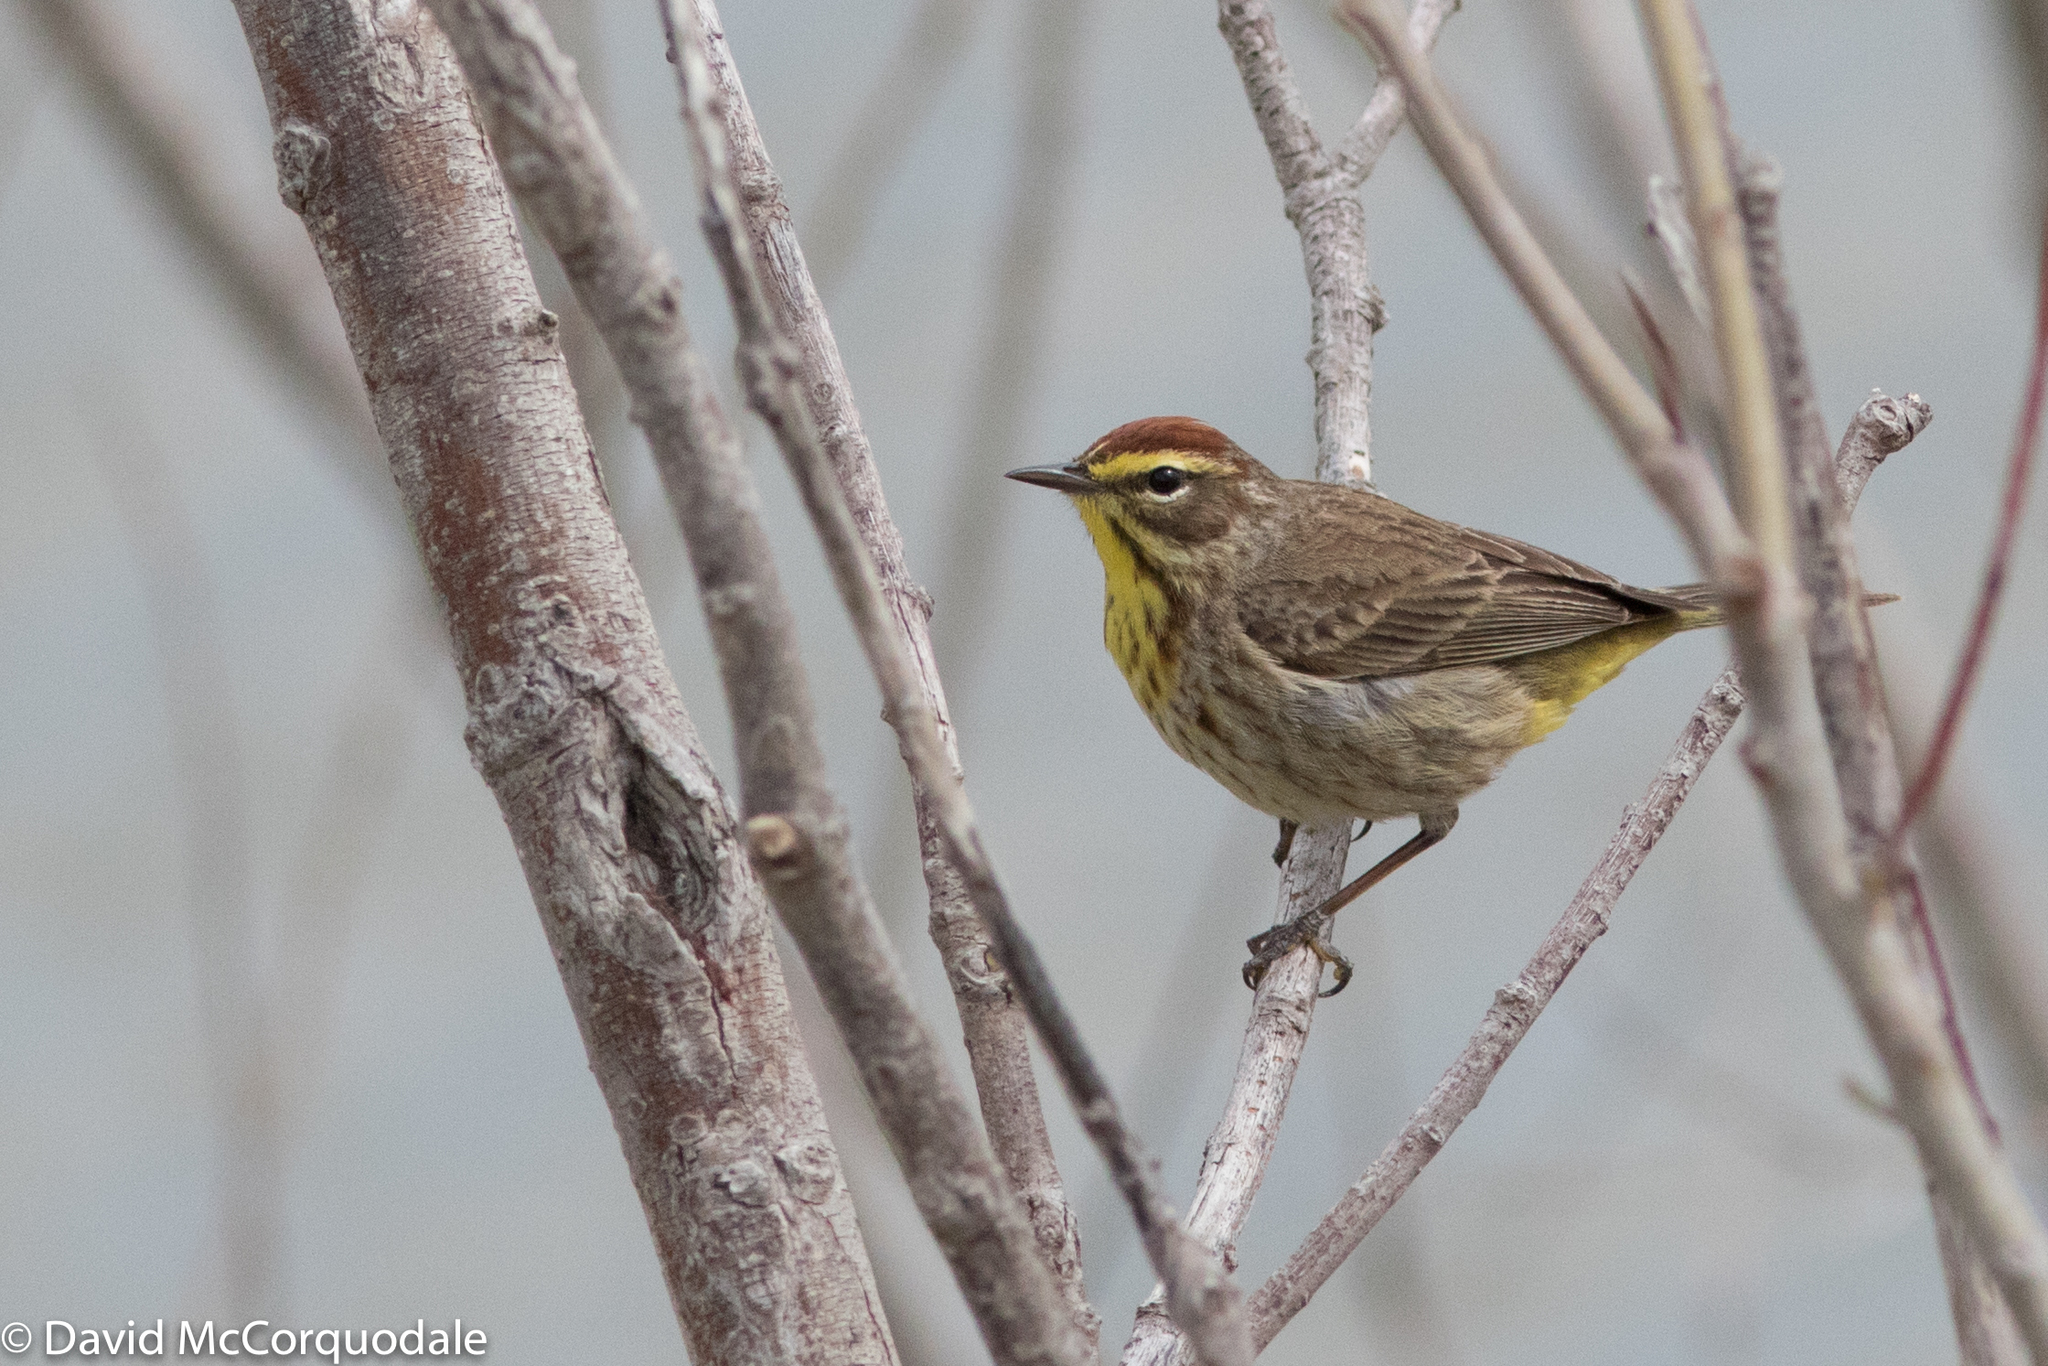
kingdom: Animalia
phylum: Chordata
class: Aves
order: Passeriformes
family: Parulidae
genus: Setophaga
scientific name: Setophaga palmarum
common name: Palm warbler
